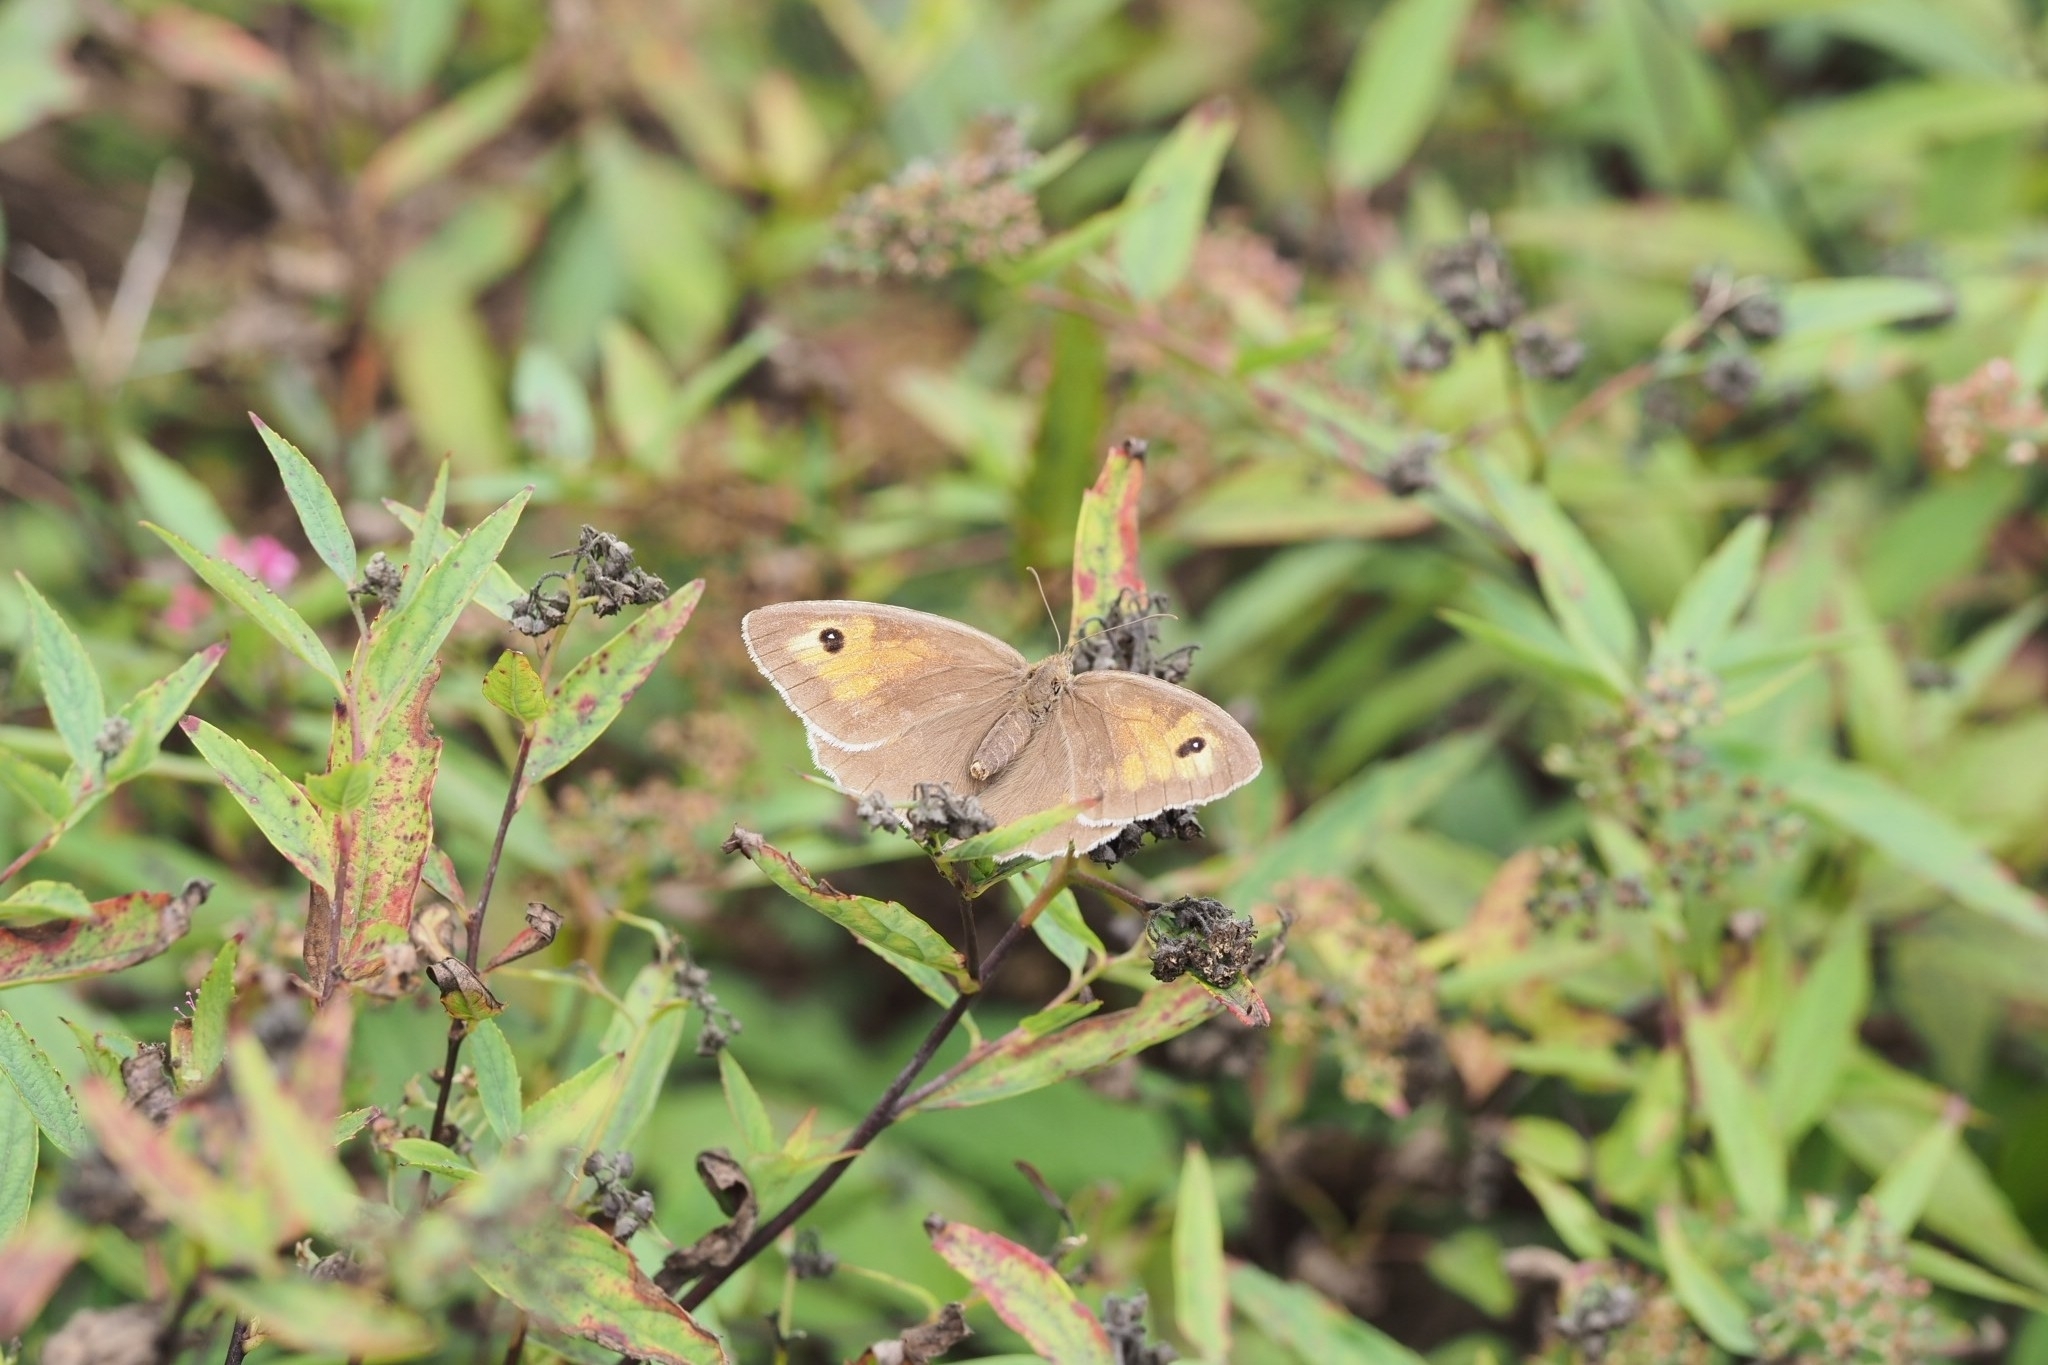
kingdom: Animalia
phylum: Arthropoda
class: Insecta
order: Lepidoptera
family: Nymphalidae
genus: Maniola
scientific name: Maniola jurtina
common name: Meadow brown
